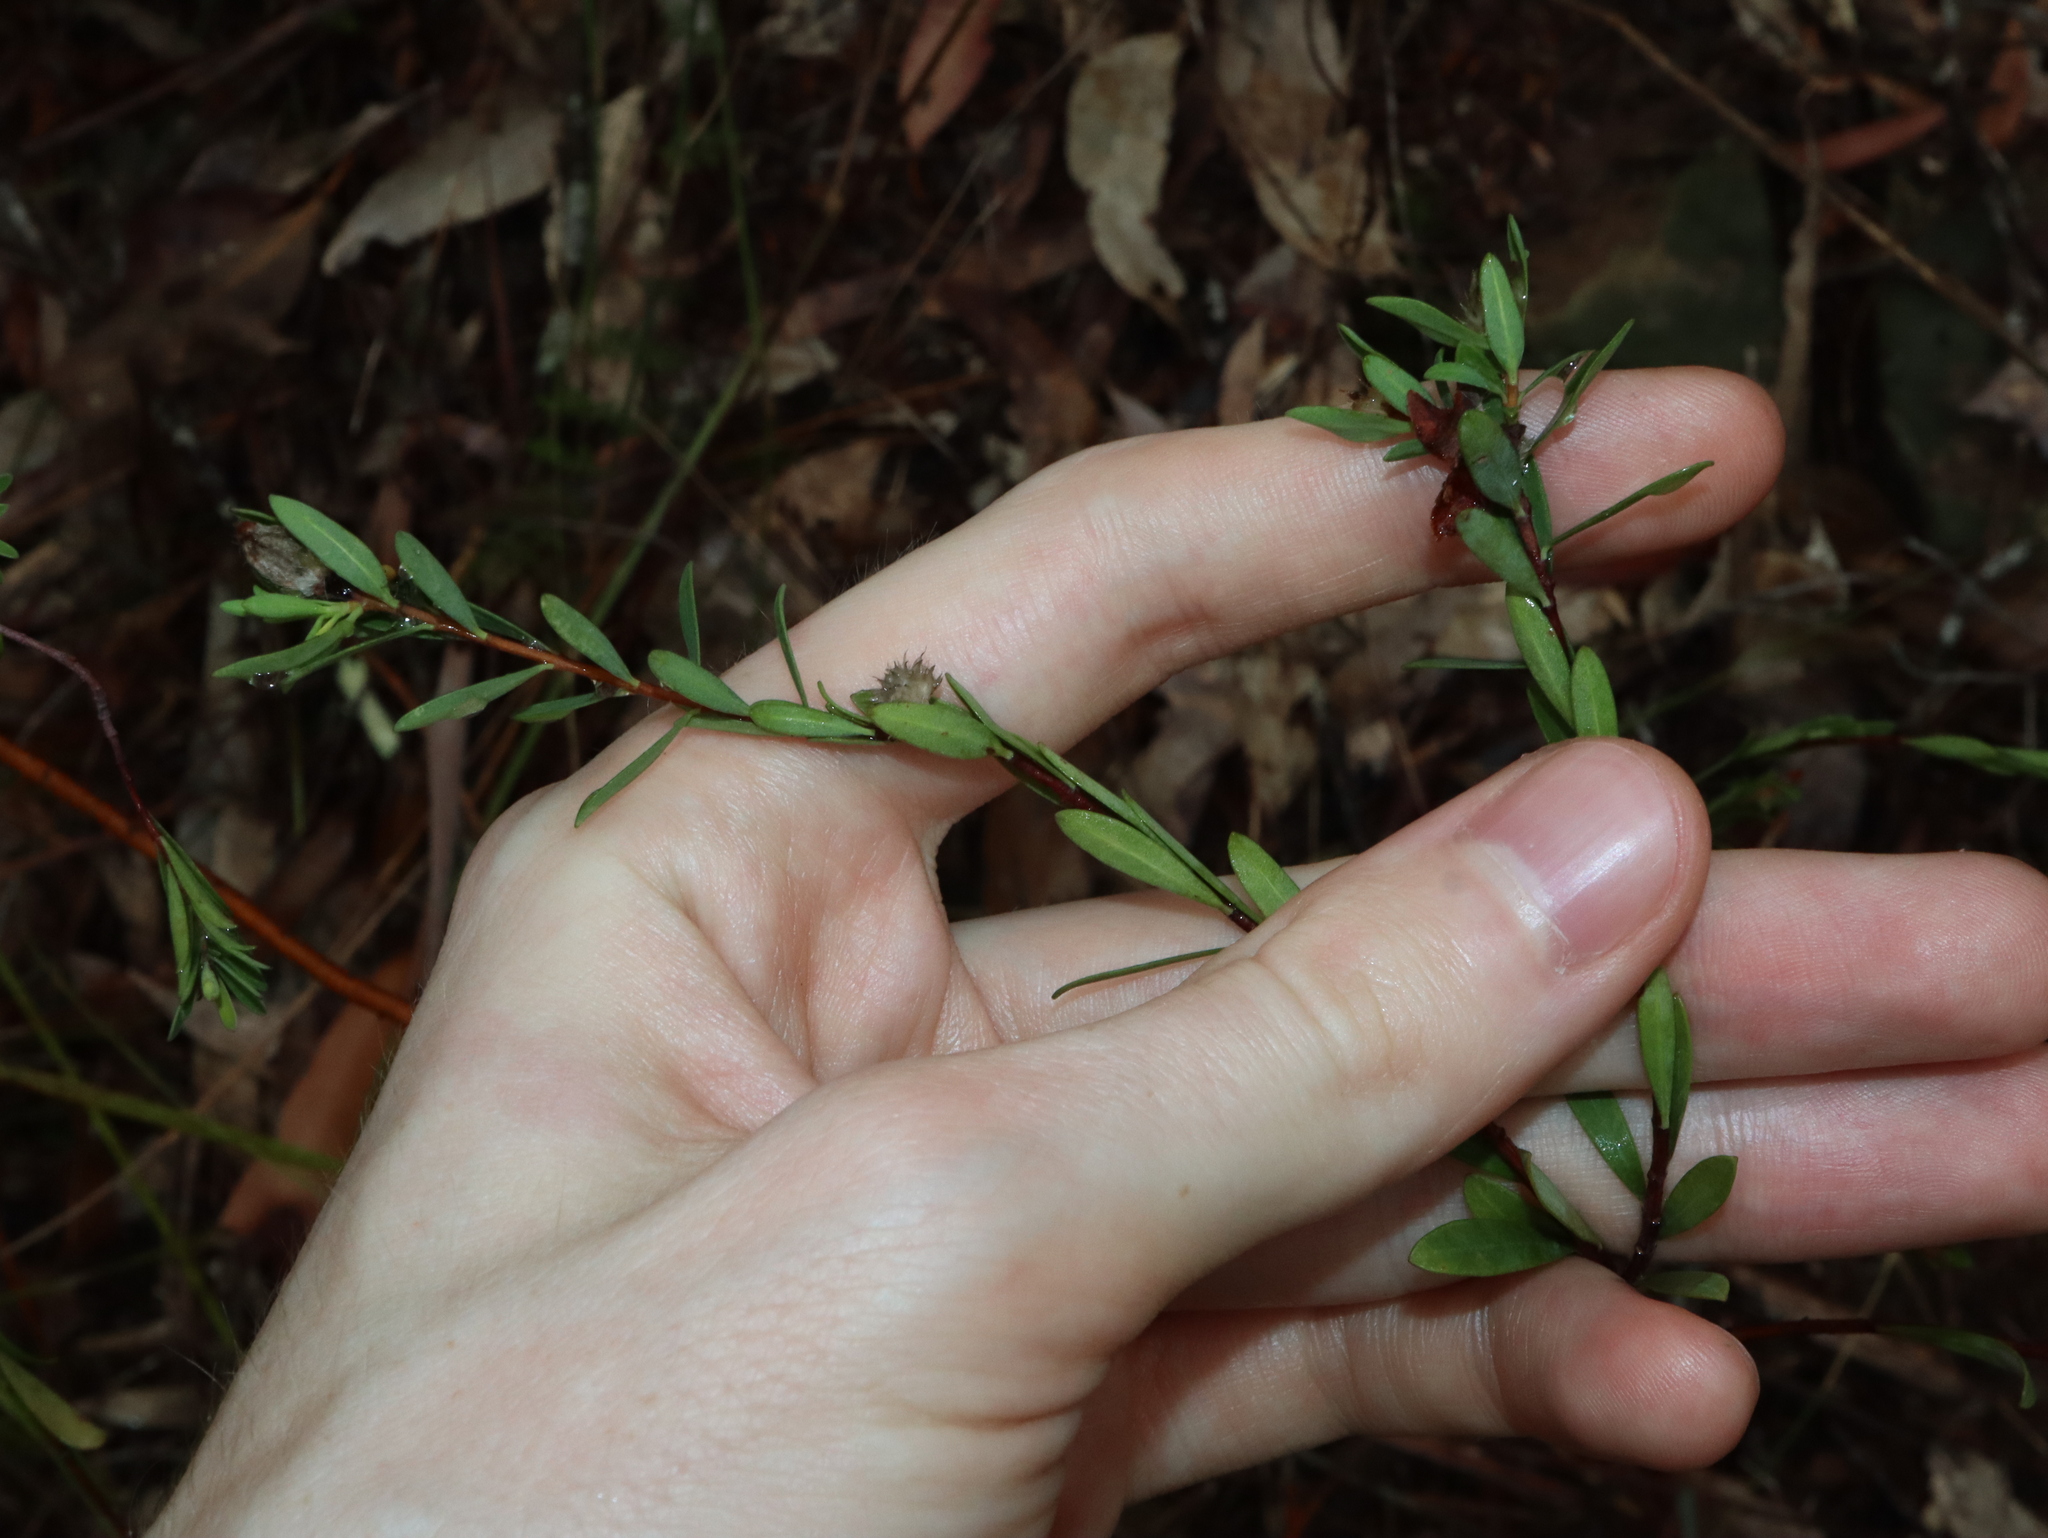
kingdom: Plantae
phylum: Tracheophyta
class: Magnoliopsida
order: Malvales
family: Thymelaeaceae
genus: Pimelea
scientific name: Pimelea linifolia
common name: Queen-of-the-bush
